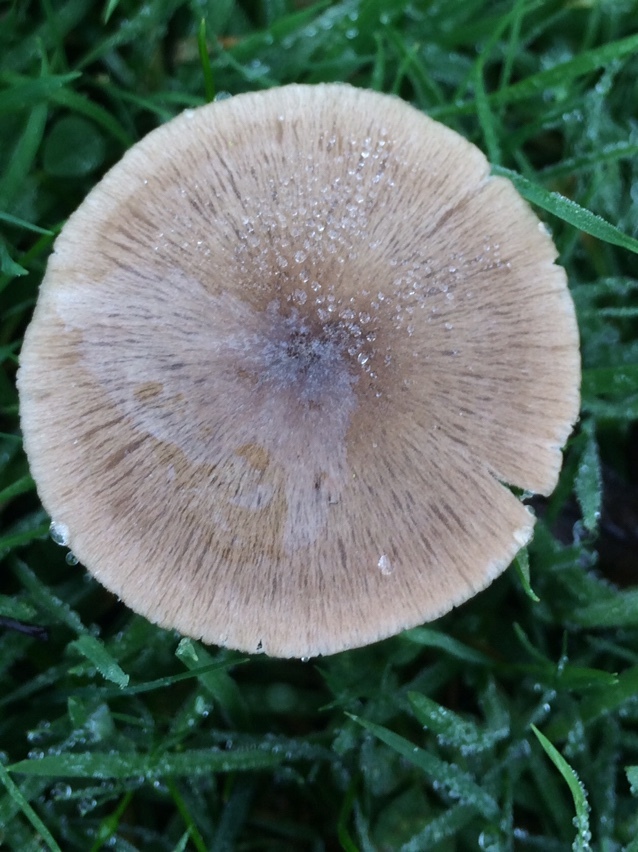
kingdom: Fungi
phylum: Basidiomycota
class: Agaricomycetes
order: Agaricales
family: Entolomataceae
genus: Entoloma
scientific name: Entoloma conferendum
